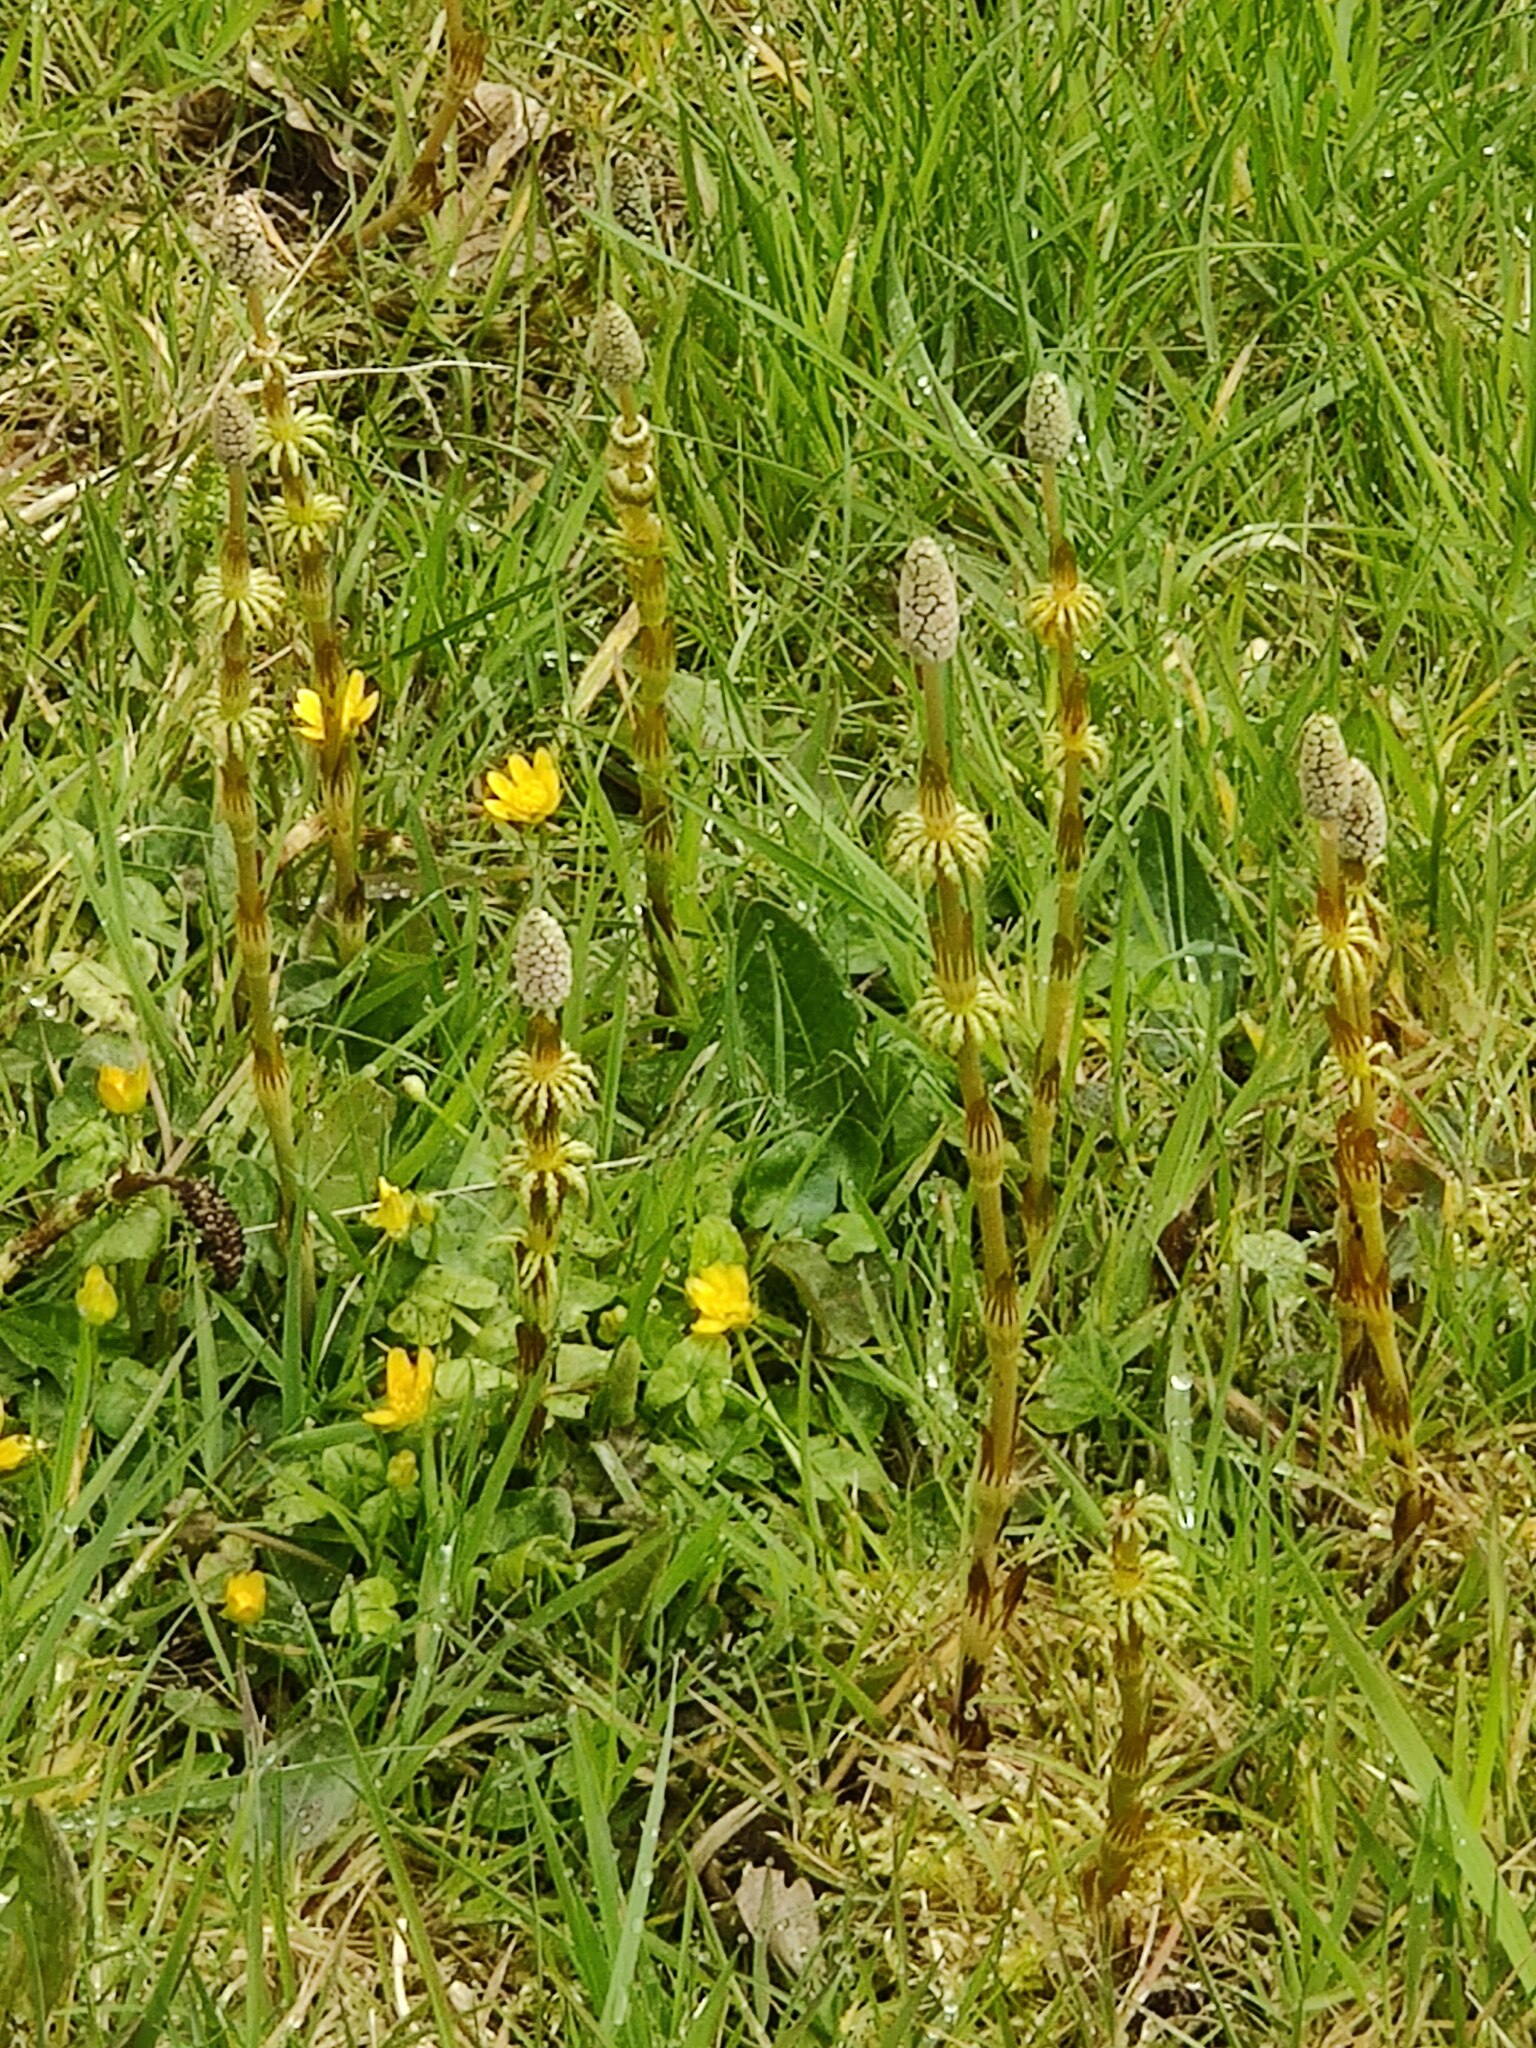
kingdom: Plantae
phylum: Tracheophyta
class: Polypodiopsida
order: Equisetales
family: Equisetaceae
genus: Equisetum
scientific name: Equisetum sylvaticum
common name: Wood horsetail
